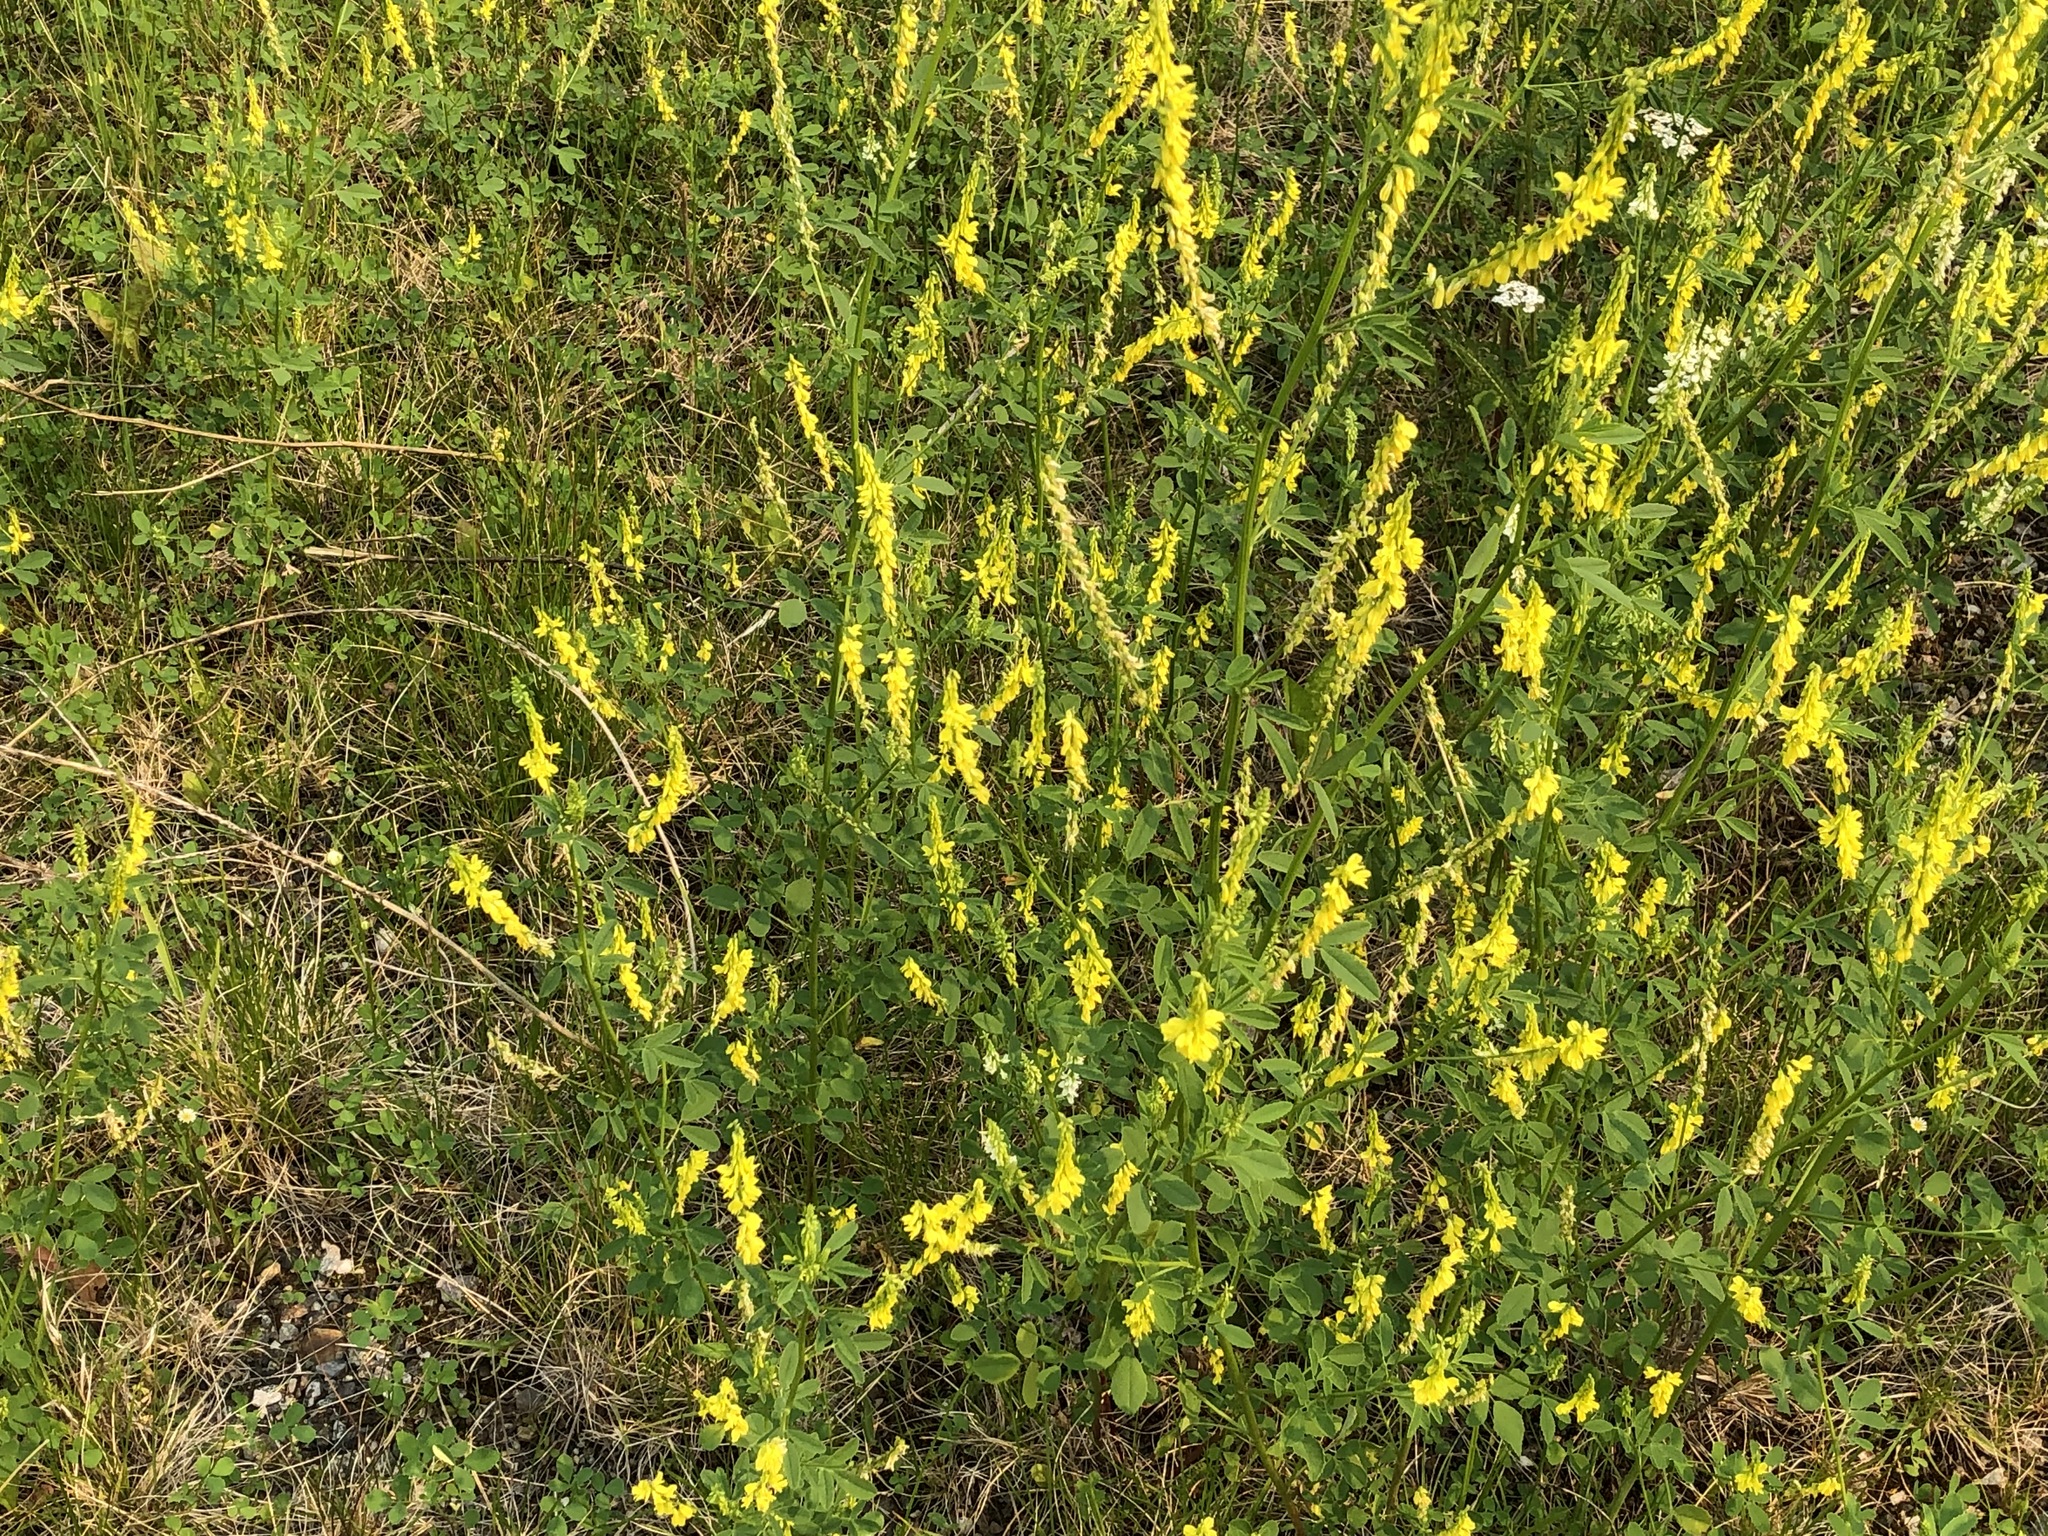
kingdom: Plantae
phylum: Tracheophyta
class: Magnoliopsida
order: Fabales
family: Fabaceae
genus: Melilotus
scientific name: Melilotus officinalis
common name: Sweetclover
